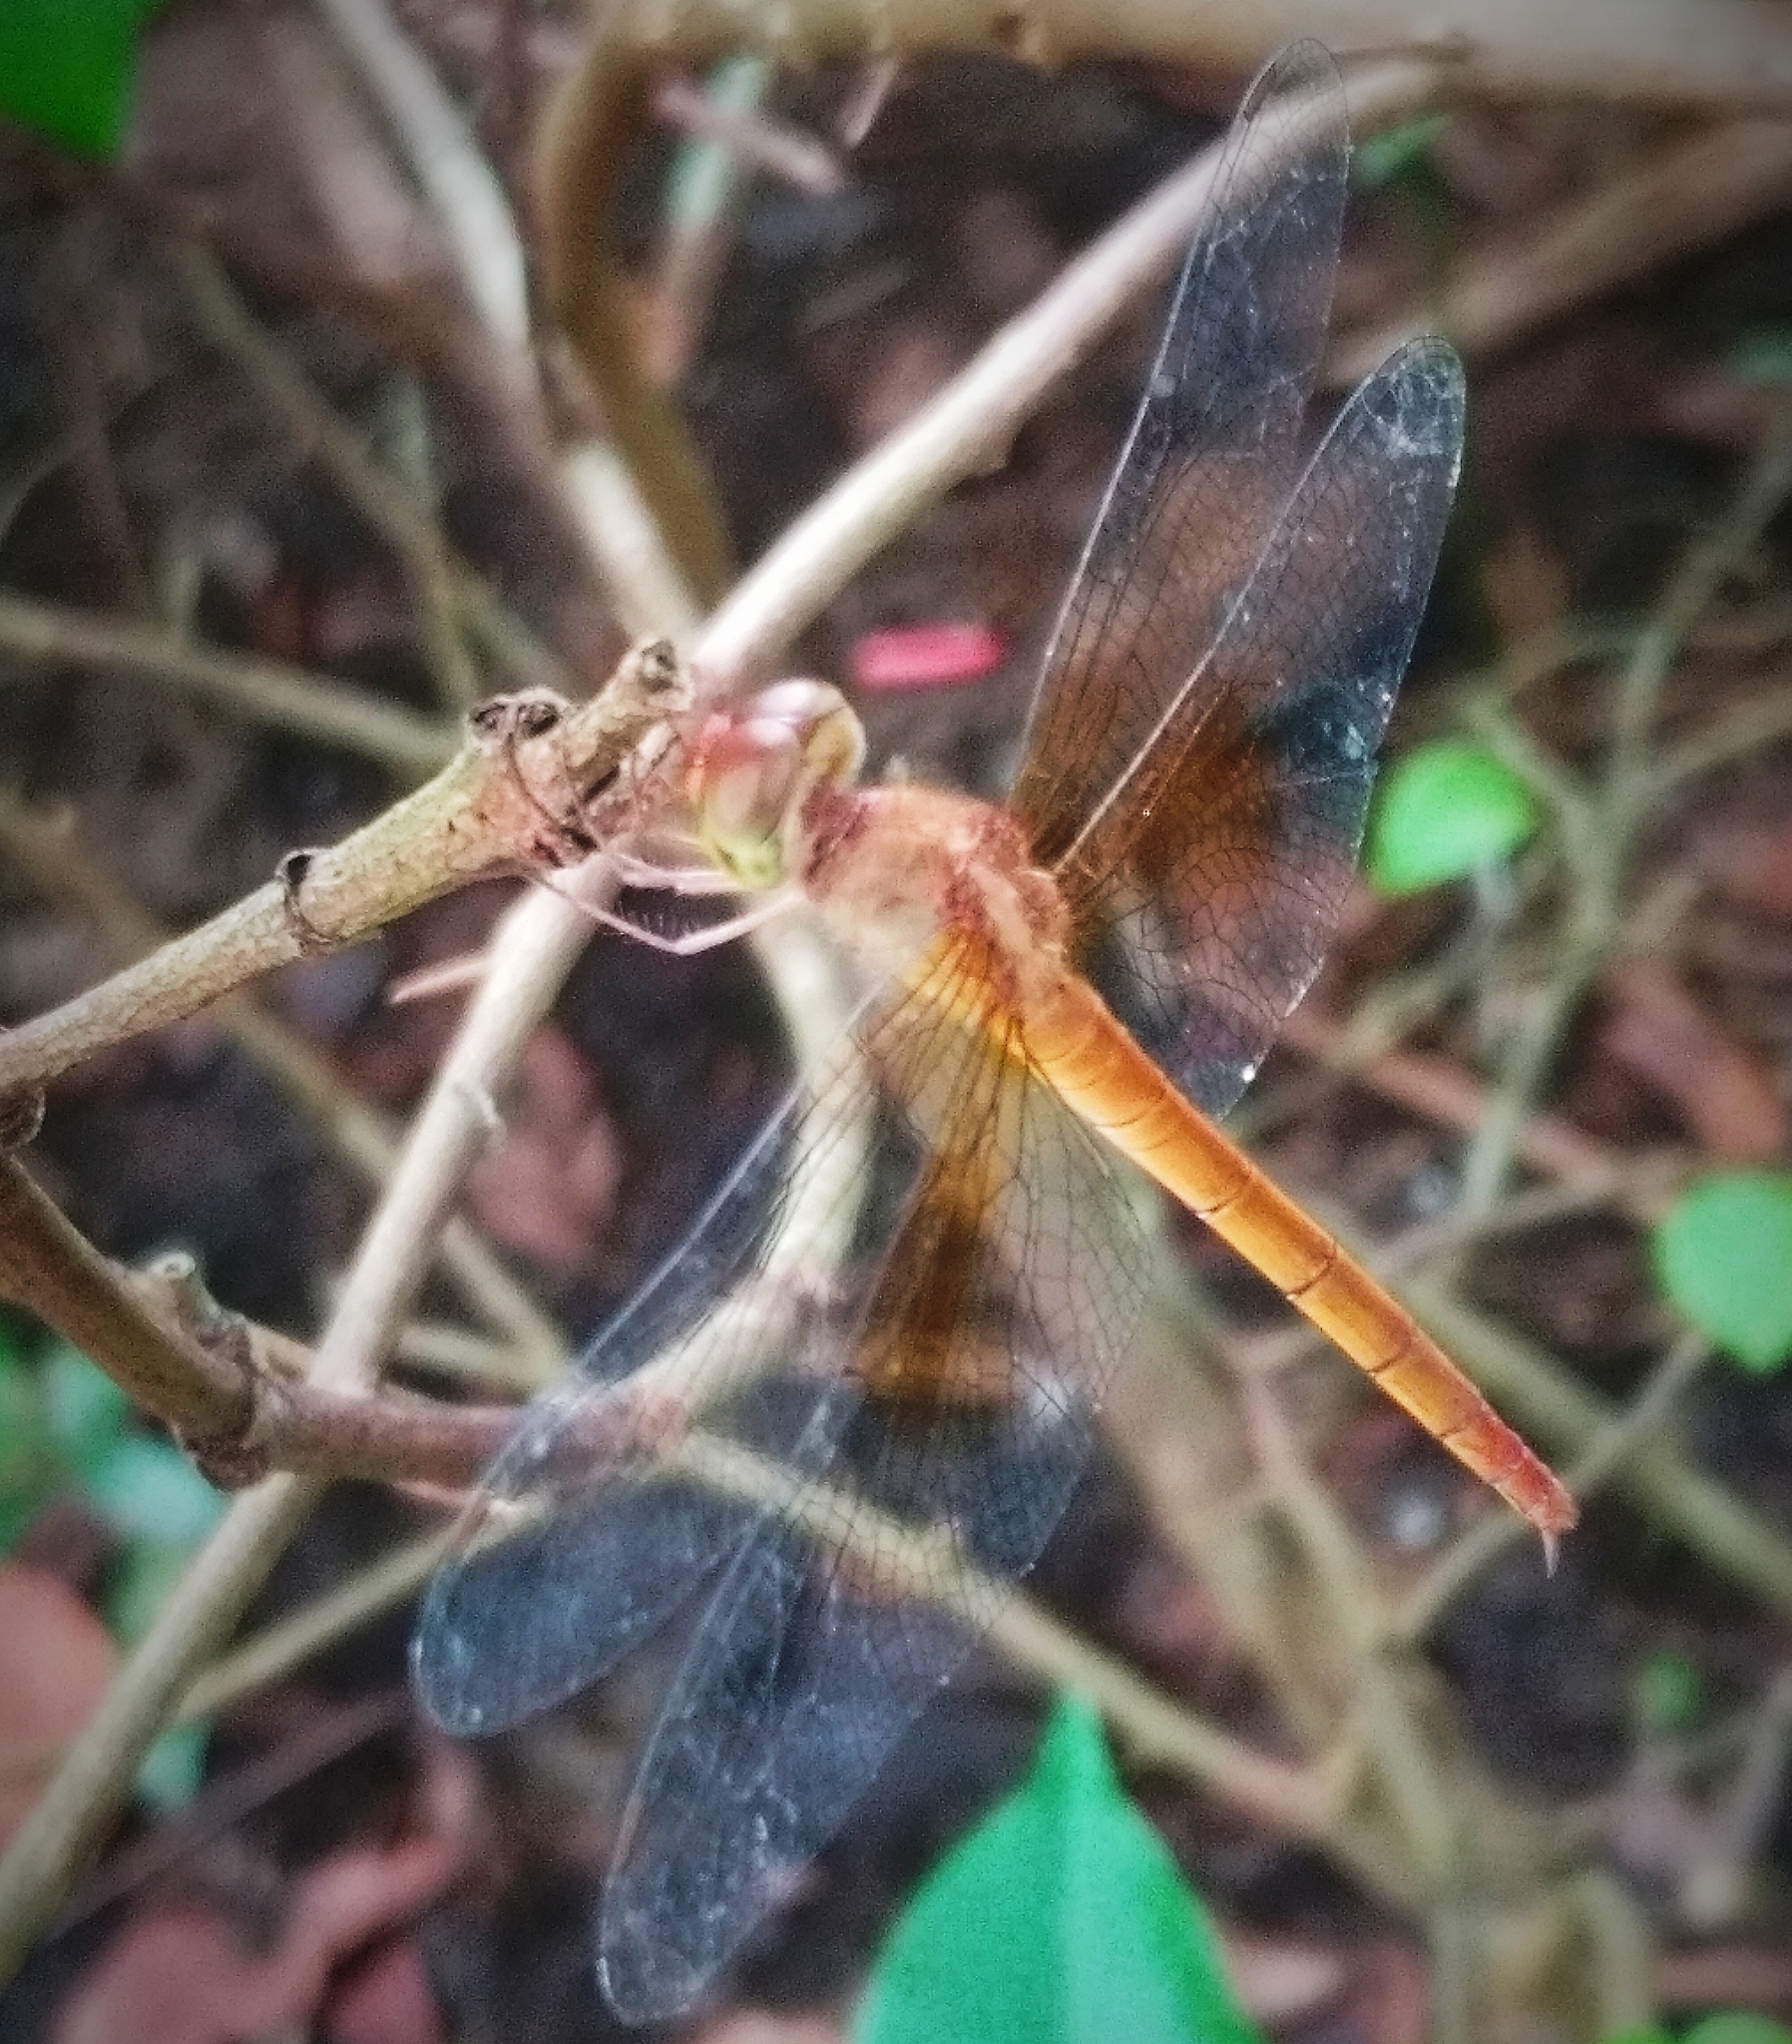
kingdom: Animalia
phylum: Arthropoda
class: Insecta
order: Odonata
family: Libellulidae
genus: Tholymis
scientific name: Tholymis tillarga
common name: Coral-tailed cloud wing
